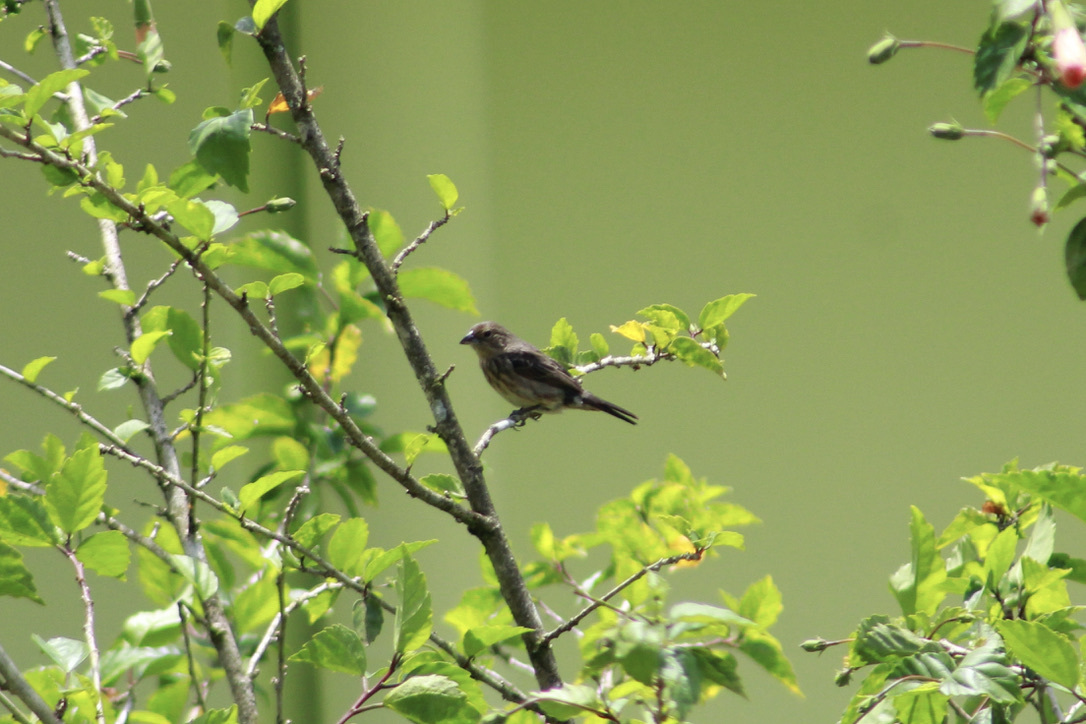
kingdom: Animalia
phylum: Chordata
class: Aves
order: Passeriformes
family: Thraupidae
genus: Volatinia
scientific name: Volatinia jacarina
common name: Blue-black grassquit
